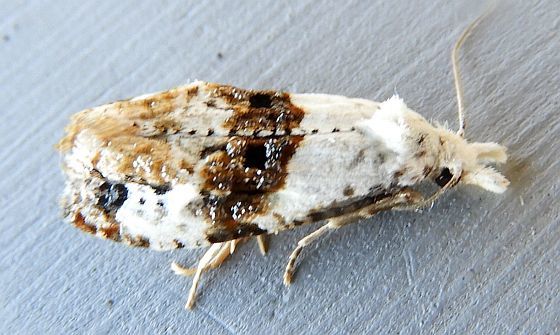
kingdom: Animalia
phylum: Arthropoda
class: Insecta
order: Lepidoptera
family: Tortricidae
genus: Phtheochroa
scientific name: Phtheochroa huachucana
